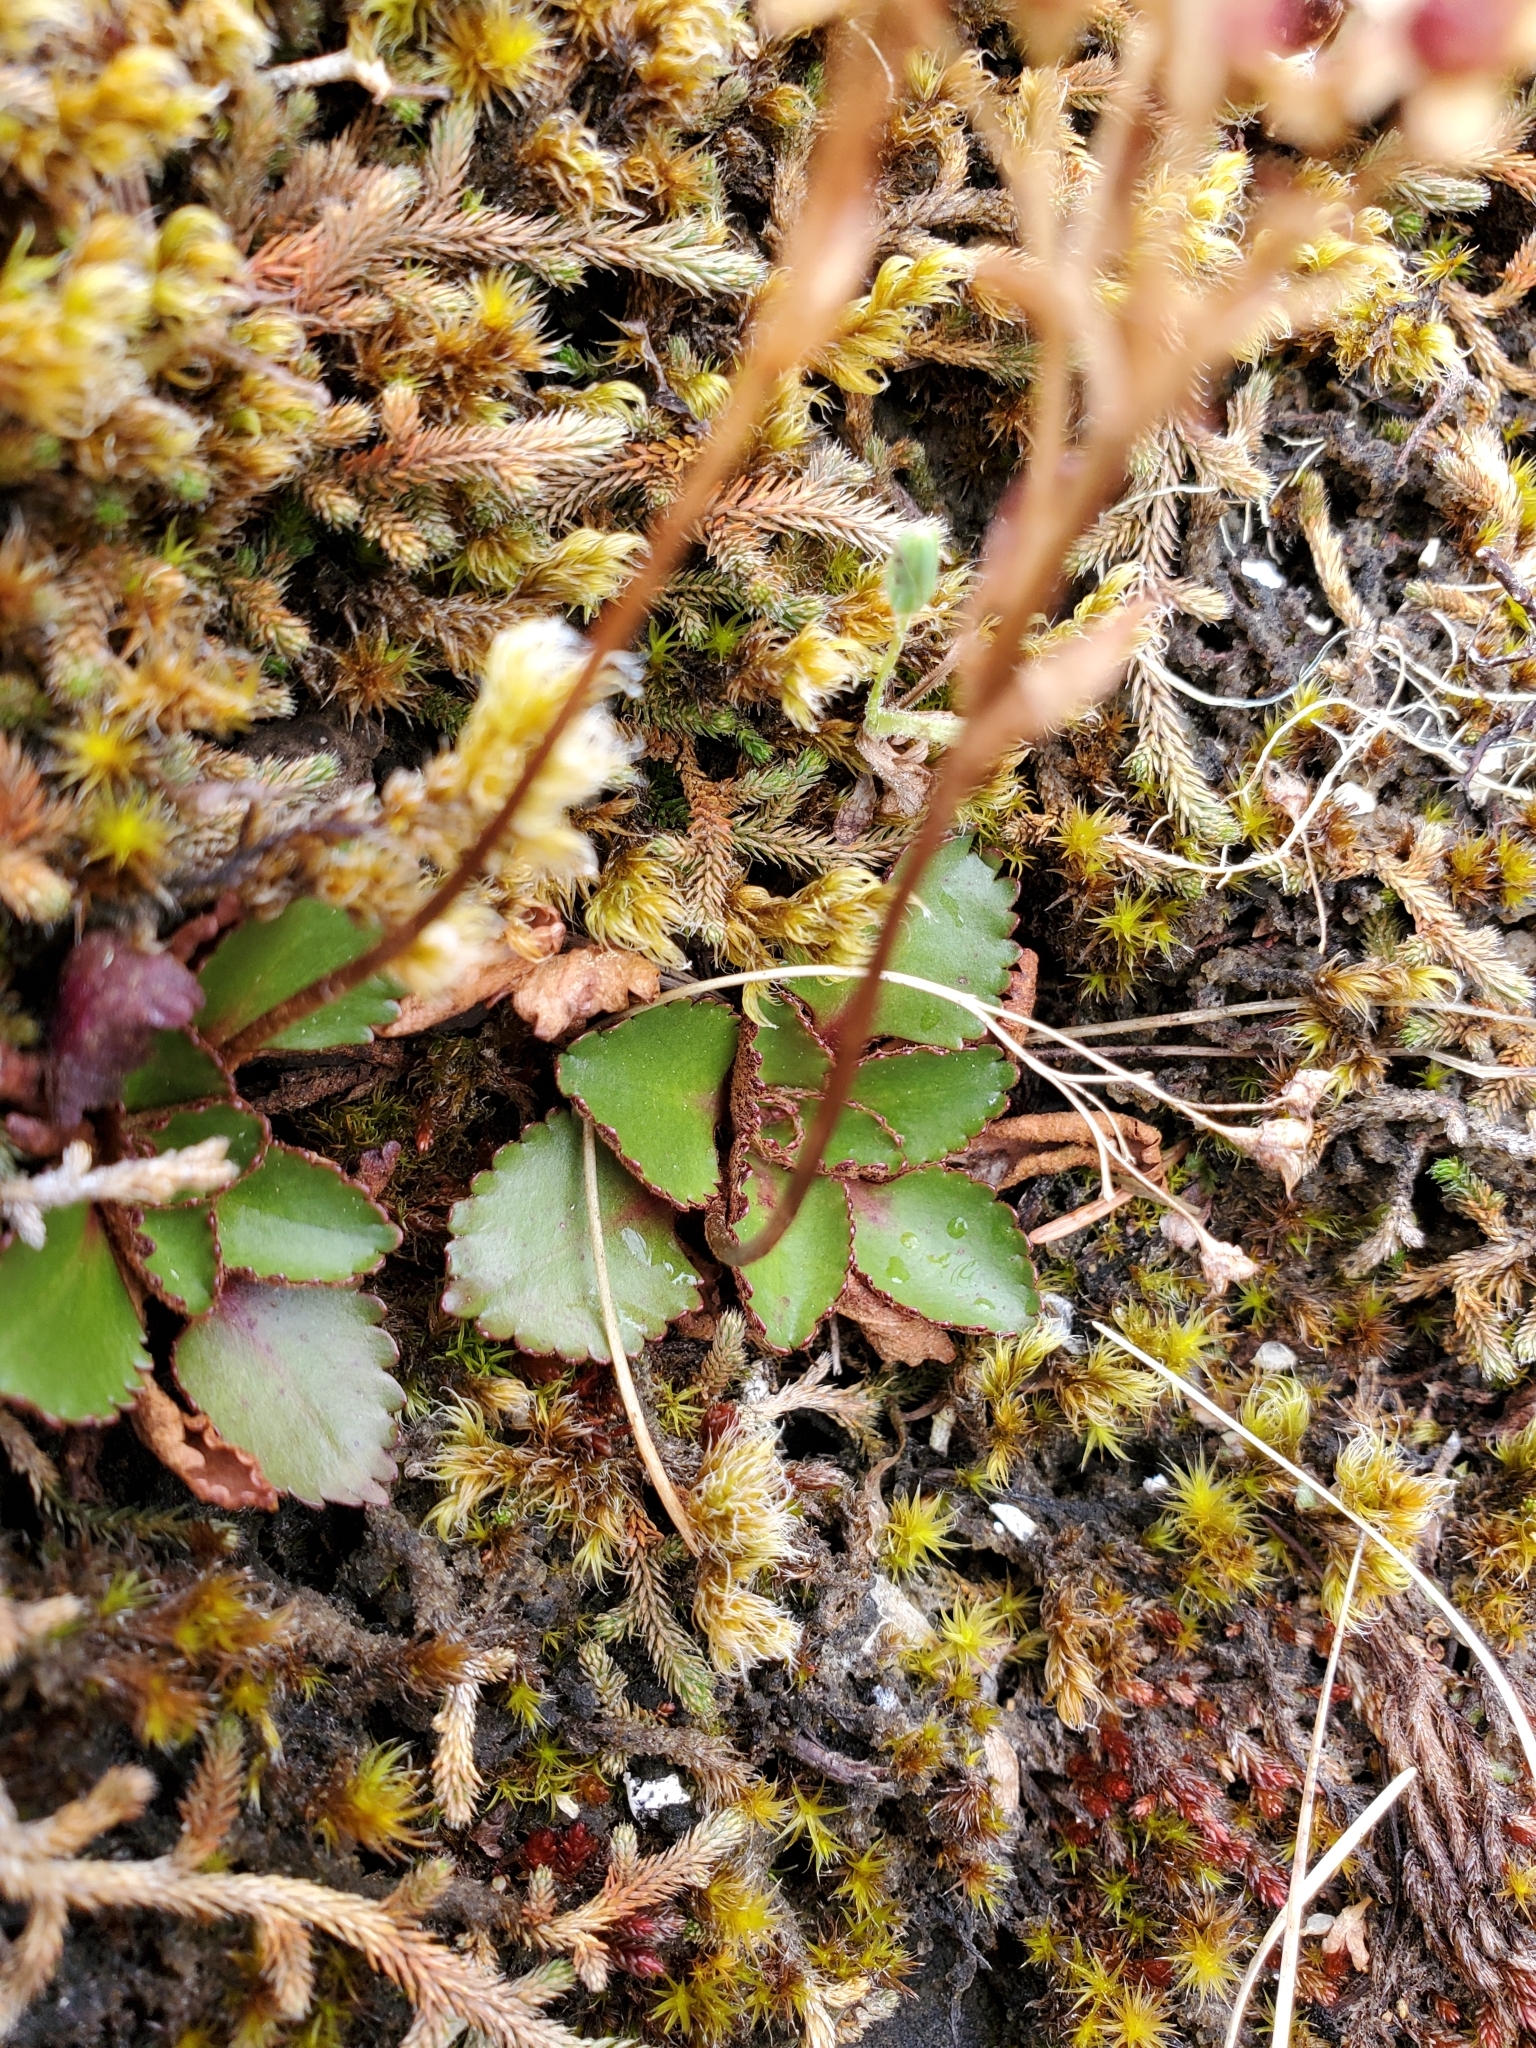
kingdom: Plantae
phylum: Tracheophyta
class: Magnoliopsida
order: Saxifragales
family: Saxifragaceae
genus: Micranthes
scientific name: Micranthes rufidula
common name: Rustyhair saxifrage
